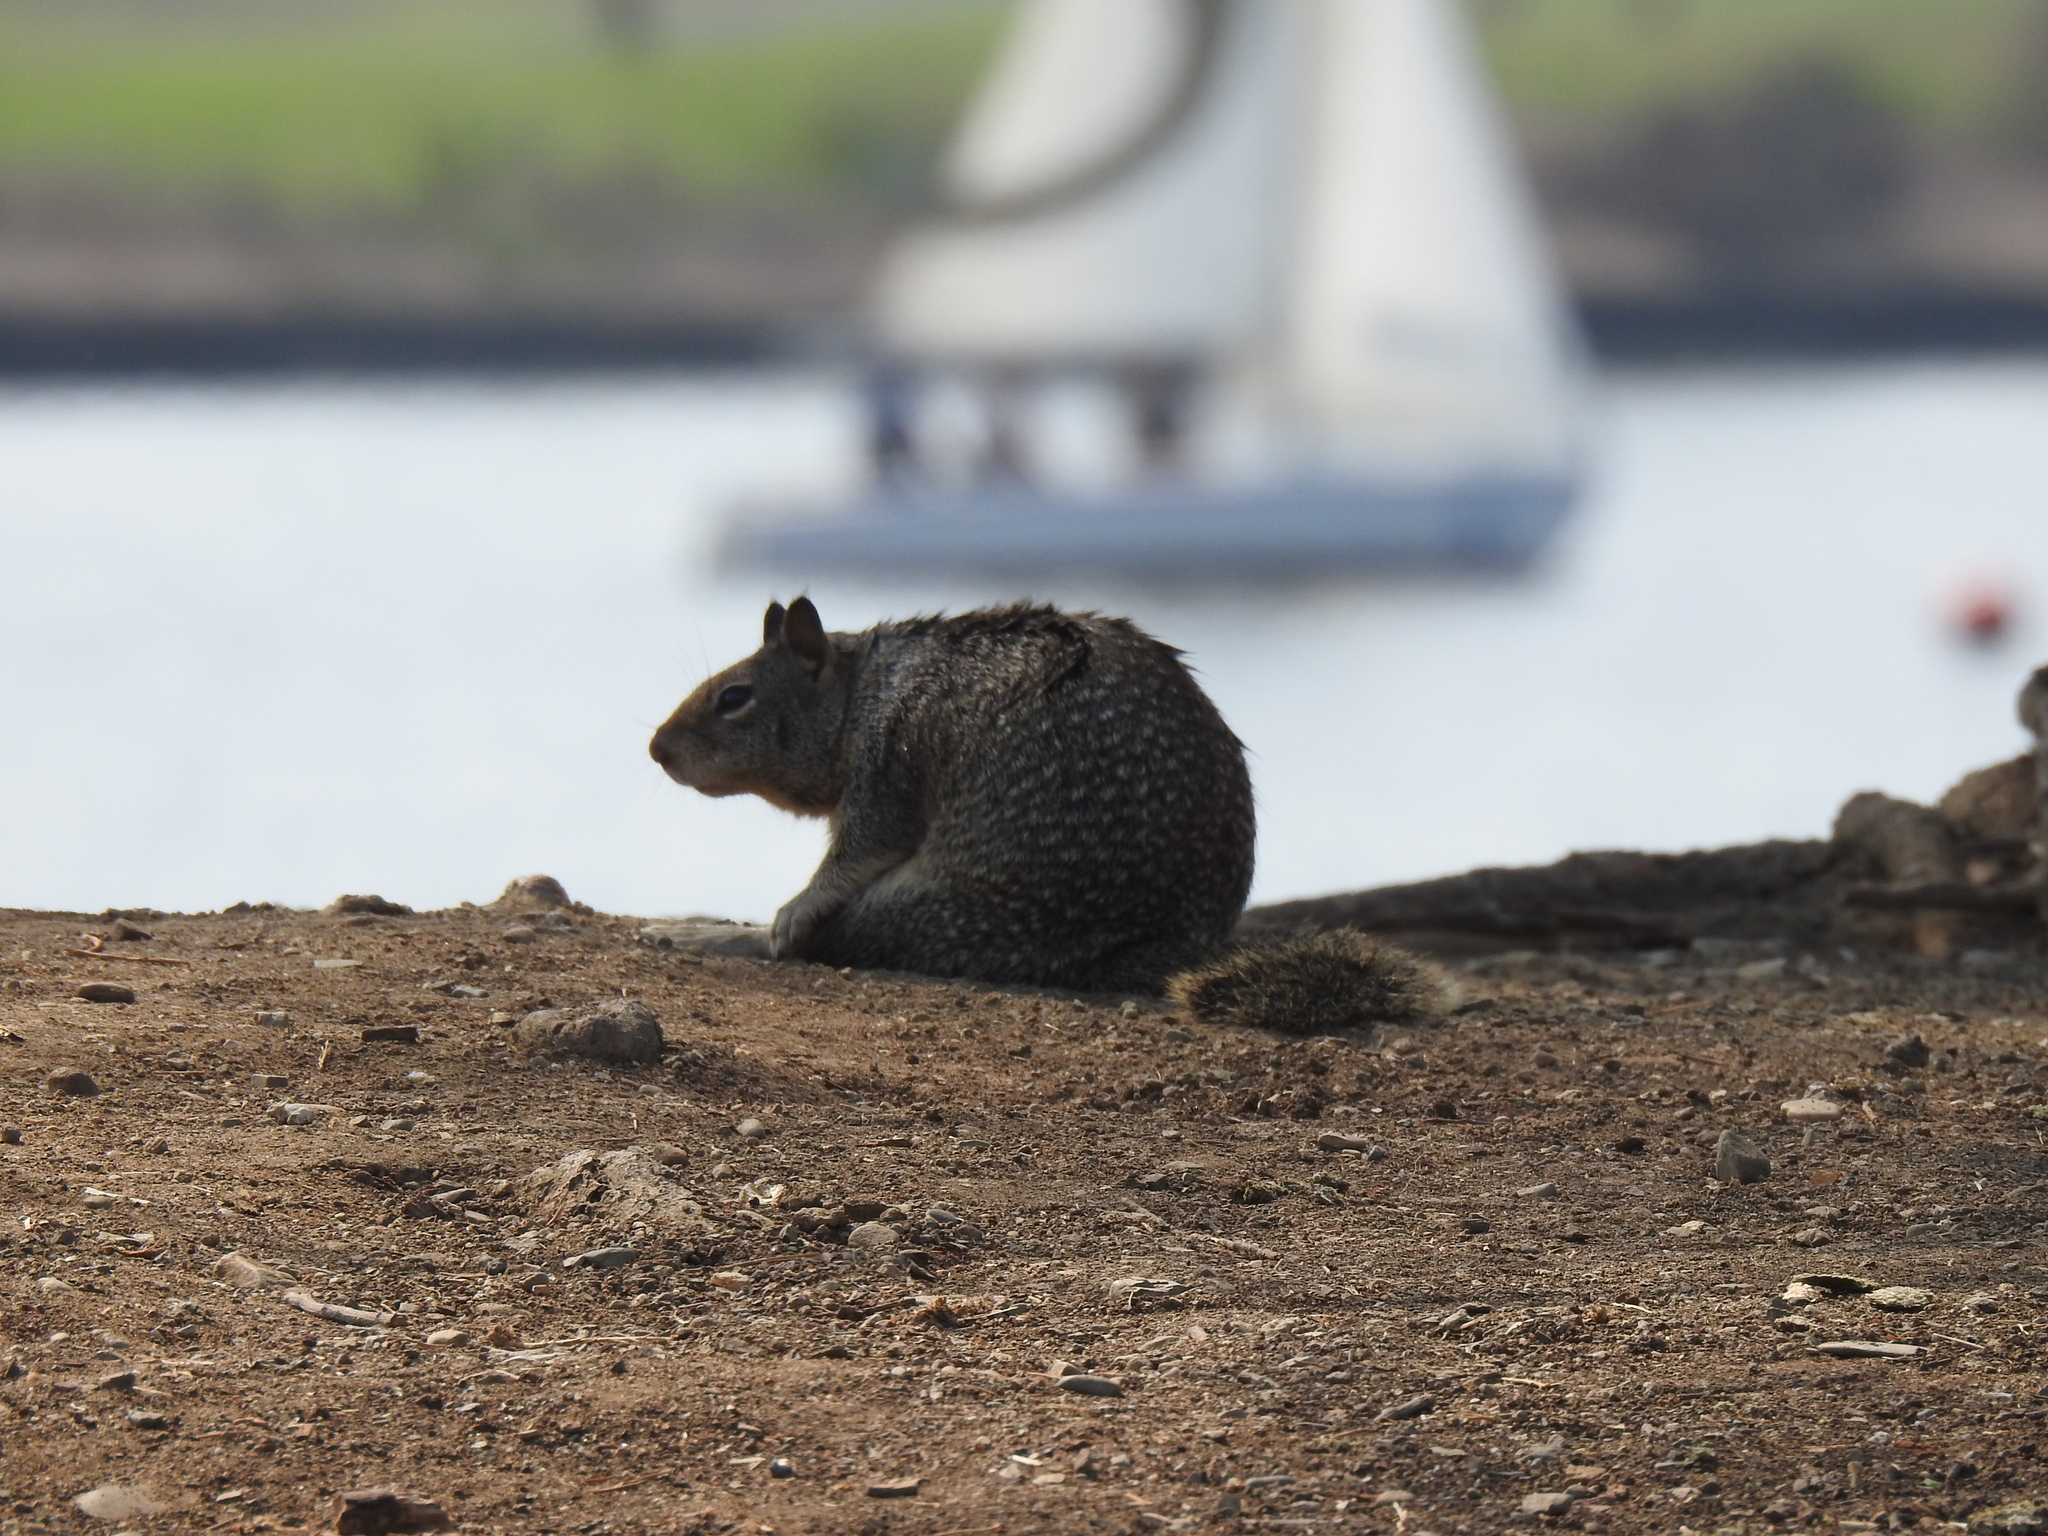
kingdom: Animalia
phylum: Chordata
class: Mammalia
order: Rodentia
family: Sciuridae
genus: Otospermophilus
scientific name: Otospermophilus beecheyi
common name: California ground squirrel
